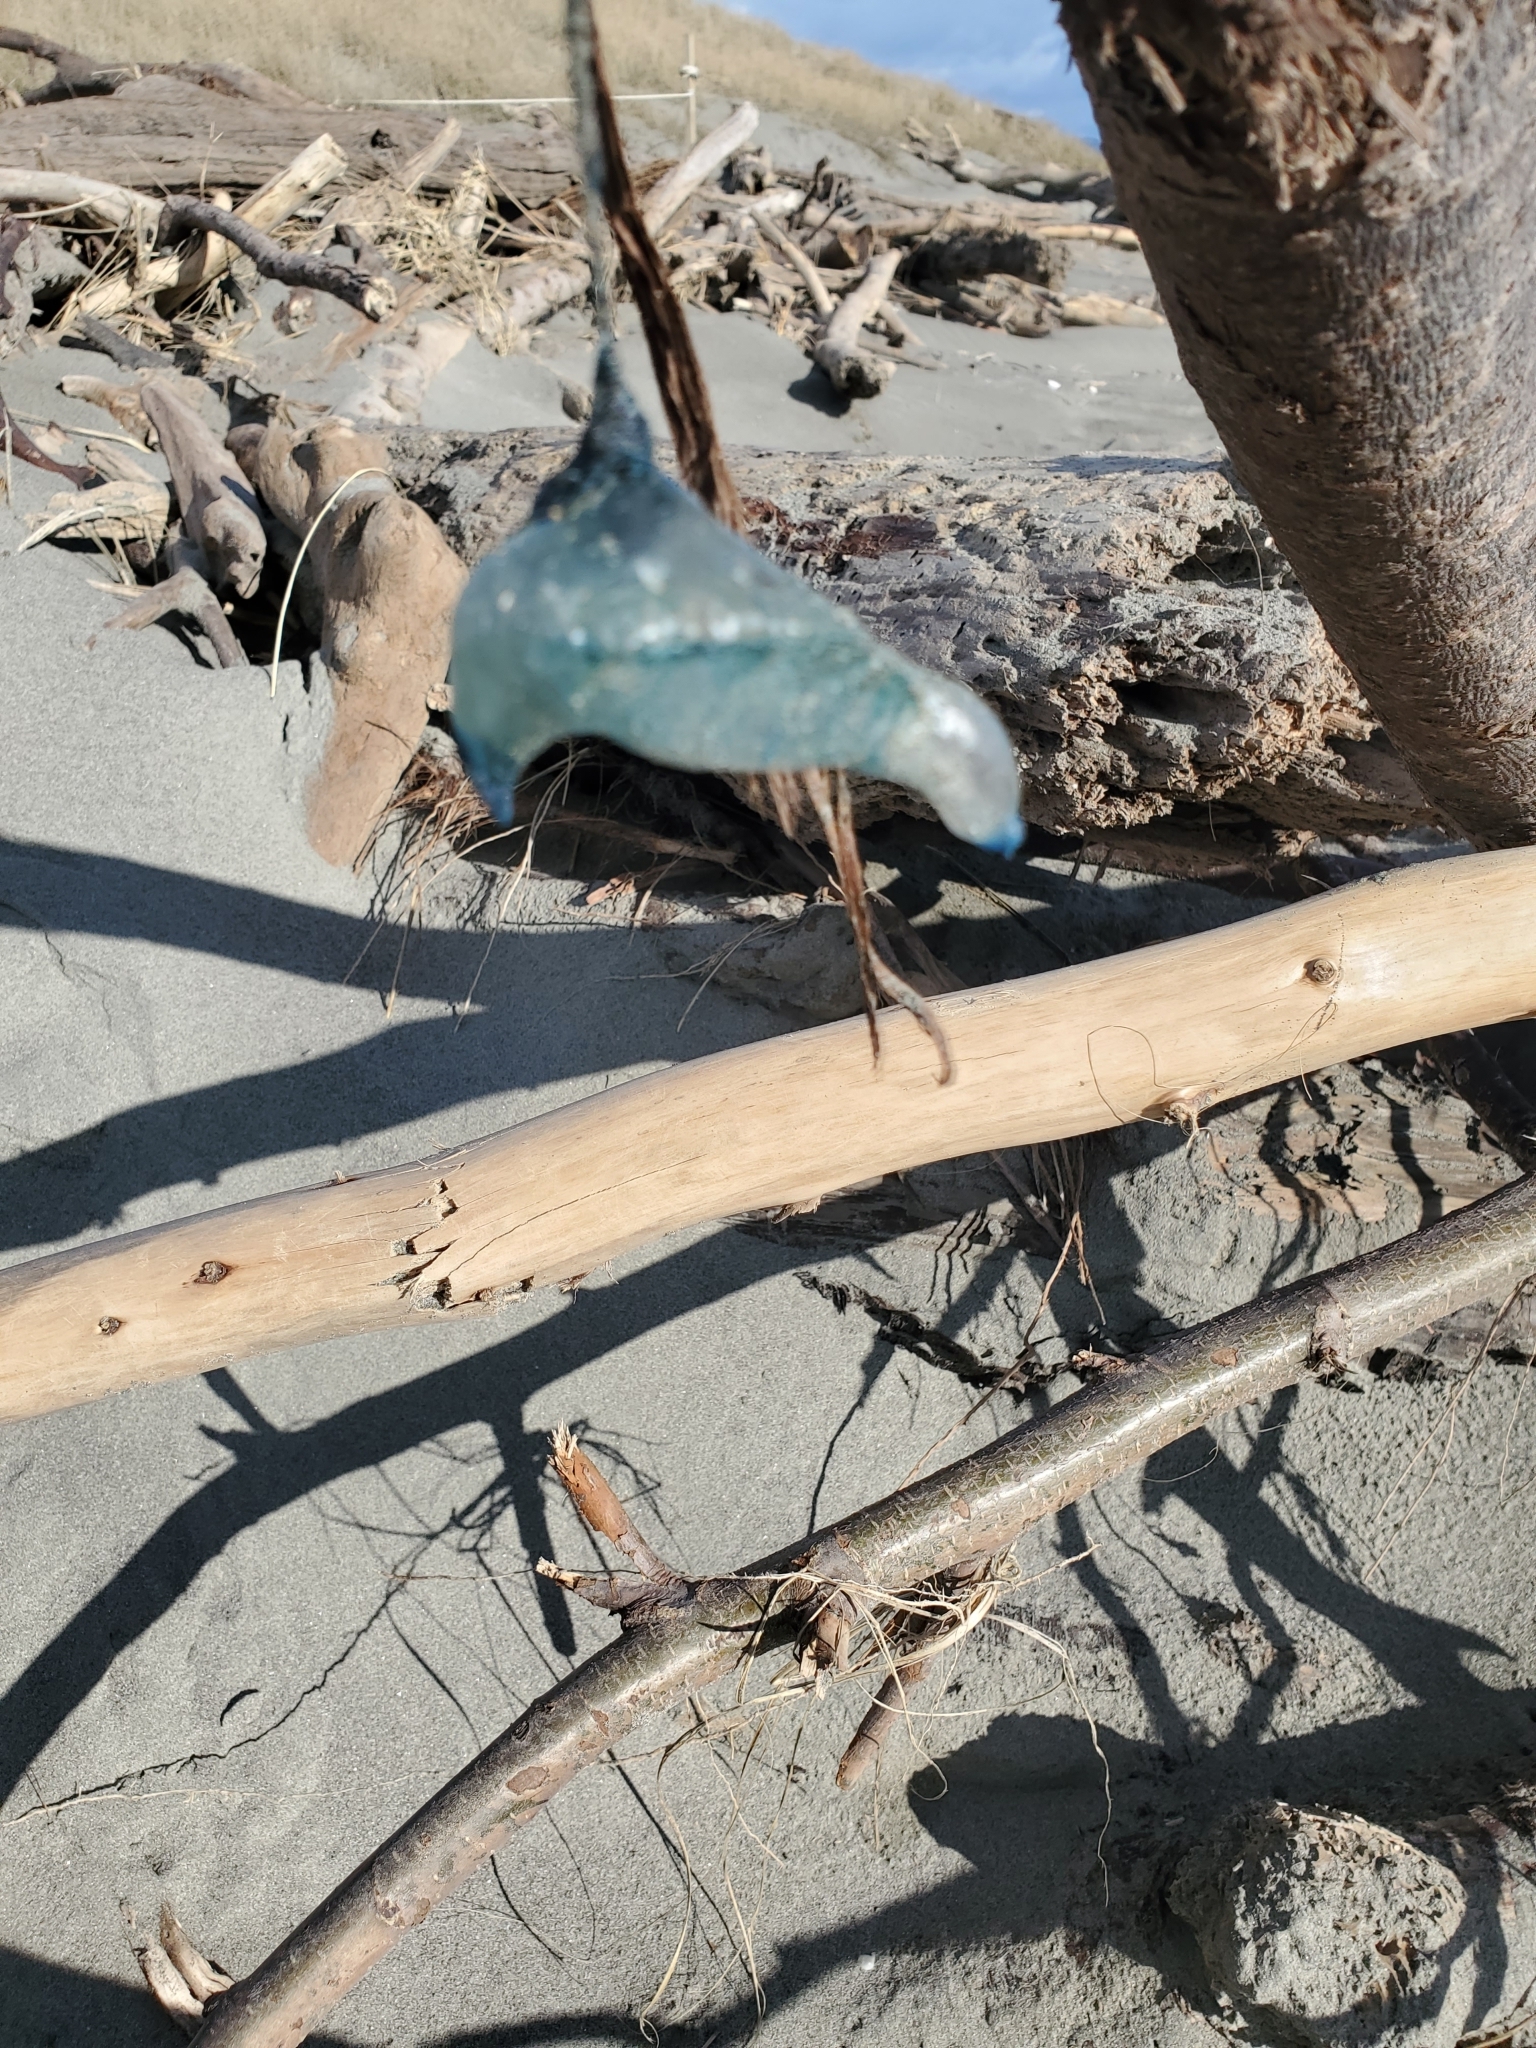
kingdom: Animalia
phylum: Cnidaria
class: Hydrozoa
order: Siphonophorae
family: Physaliidae
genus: Physalia
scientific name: Physalia physalis
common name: Portuguese man-of-war
